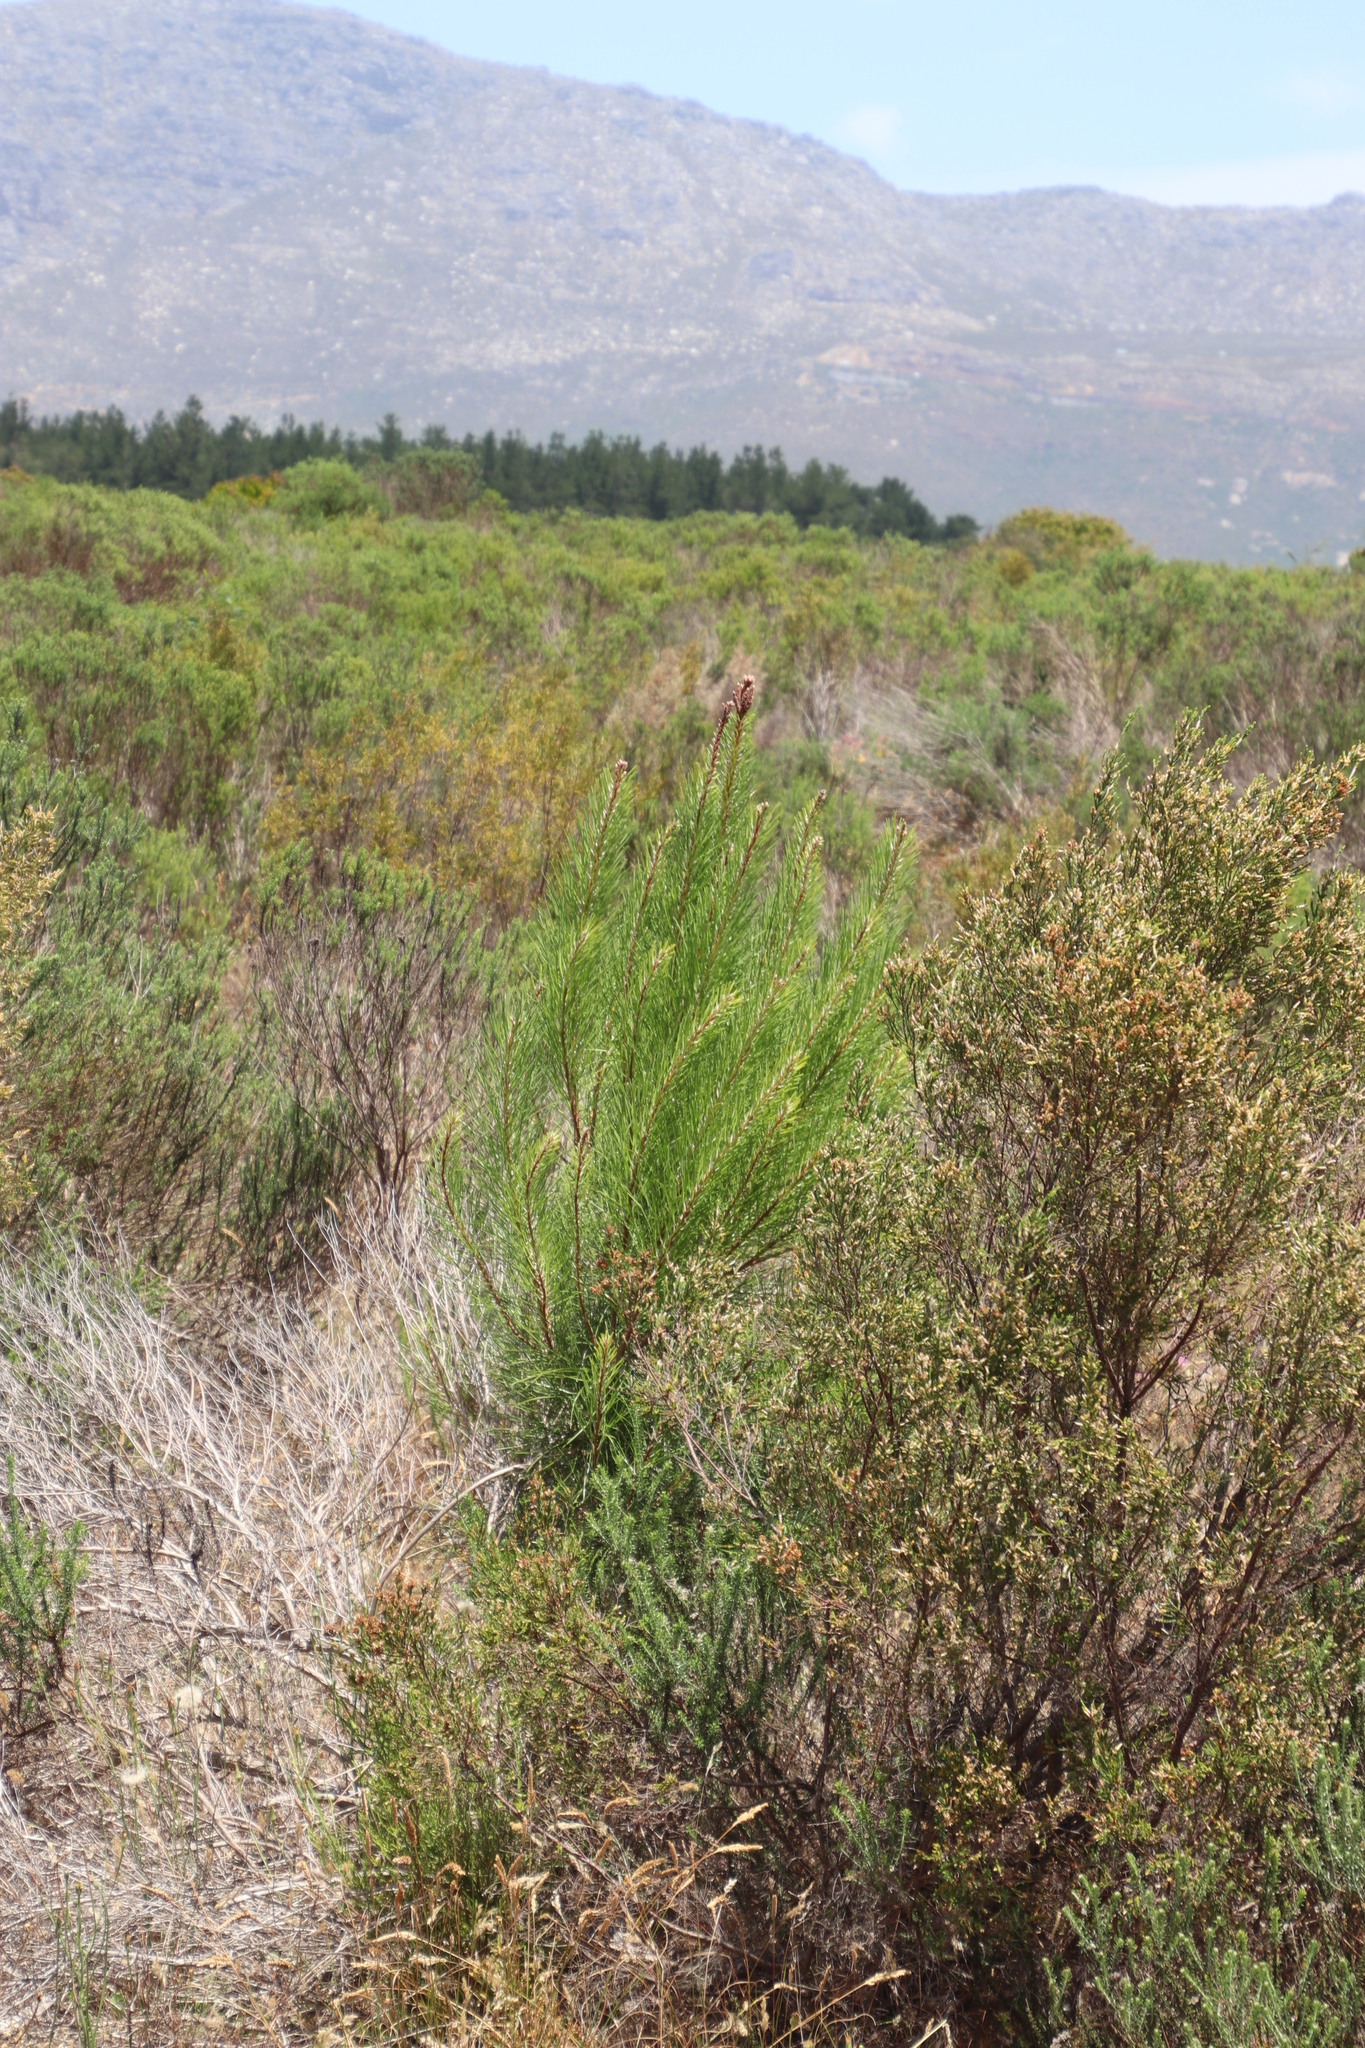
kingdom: Plantae
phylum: Tracheophyta
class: Pinopsida
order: Pinales
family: Pinaceae
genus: Pinus
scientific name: Pinus pinaster
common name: Maritime pine
